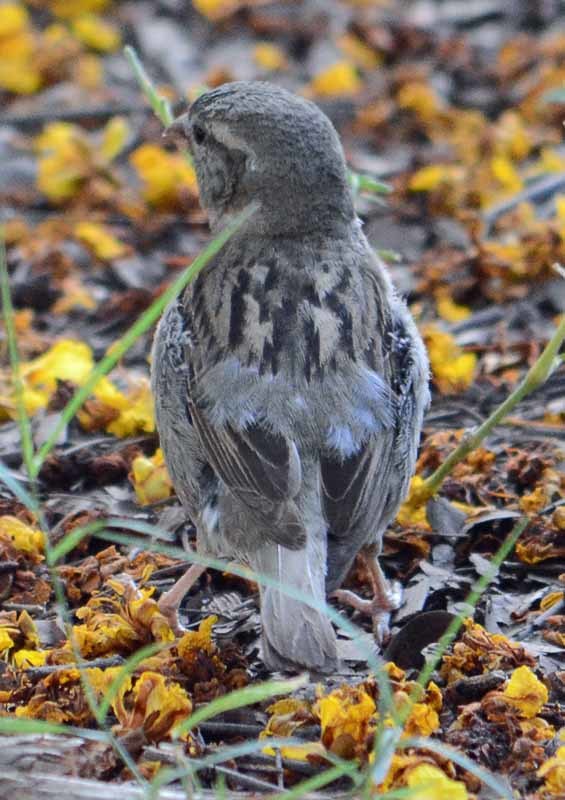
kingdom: Animalia
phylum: Chordata
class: Aves
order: Passeriformes
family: Passeridae
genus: Passer
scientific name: Passer domesticus
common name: House sparrow
